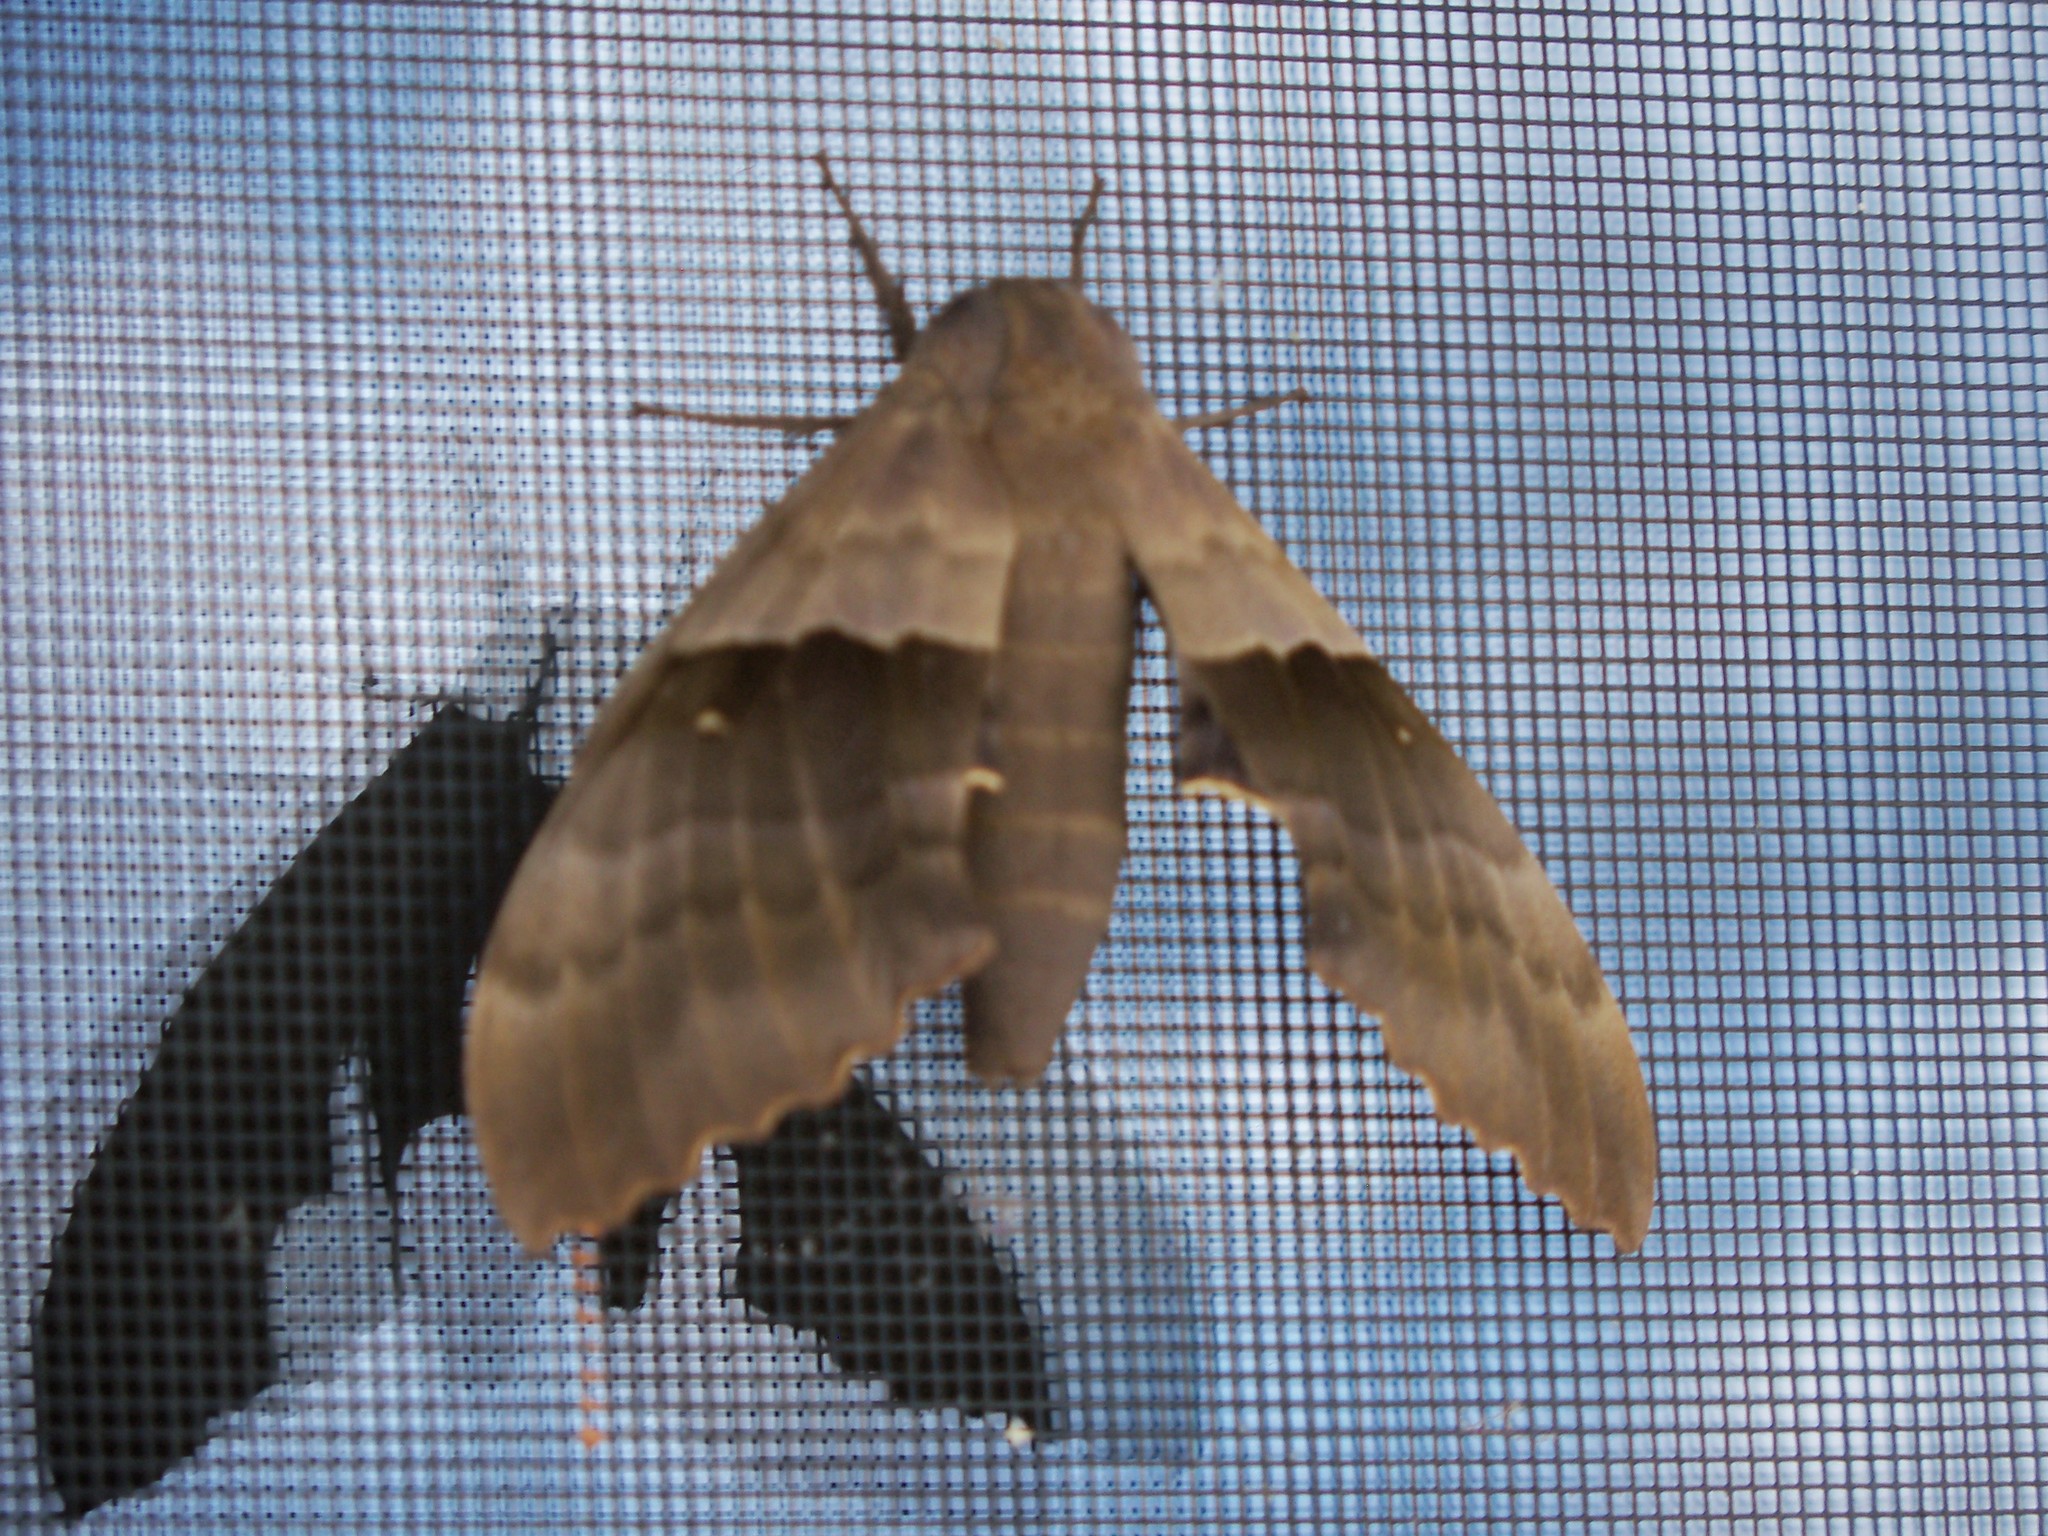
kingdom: Animalia
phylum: Arthropoda
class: Insecta
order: Lepidoptera
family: Sphingidae
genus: Pachysphinx
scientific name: Pachysphinx modesta
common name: Big poplar sphinx
